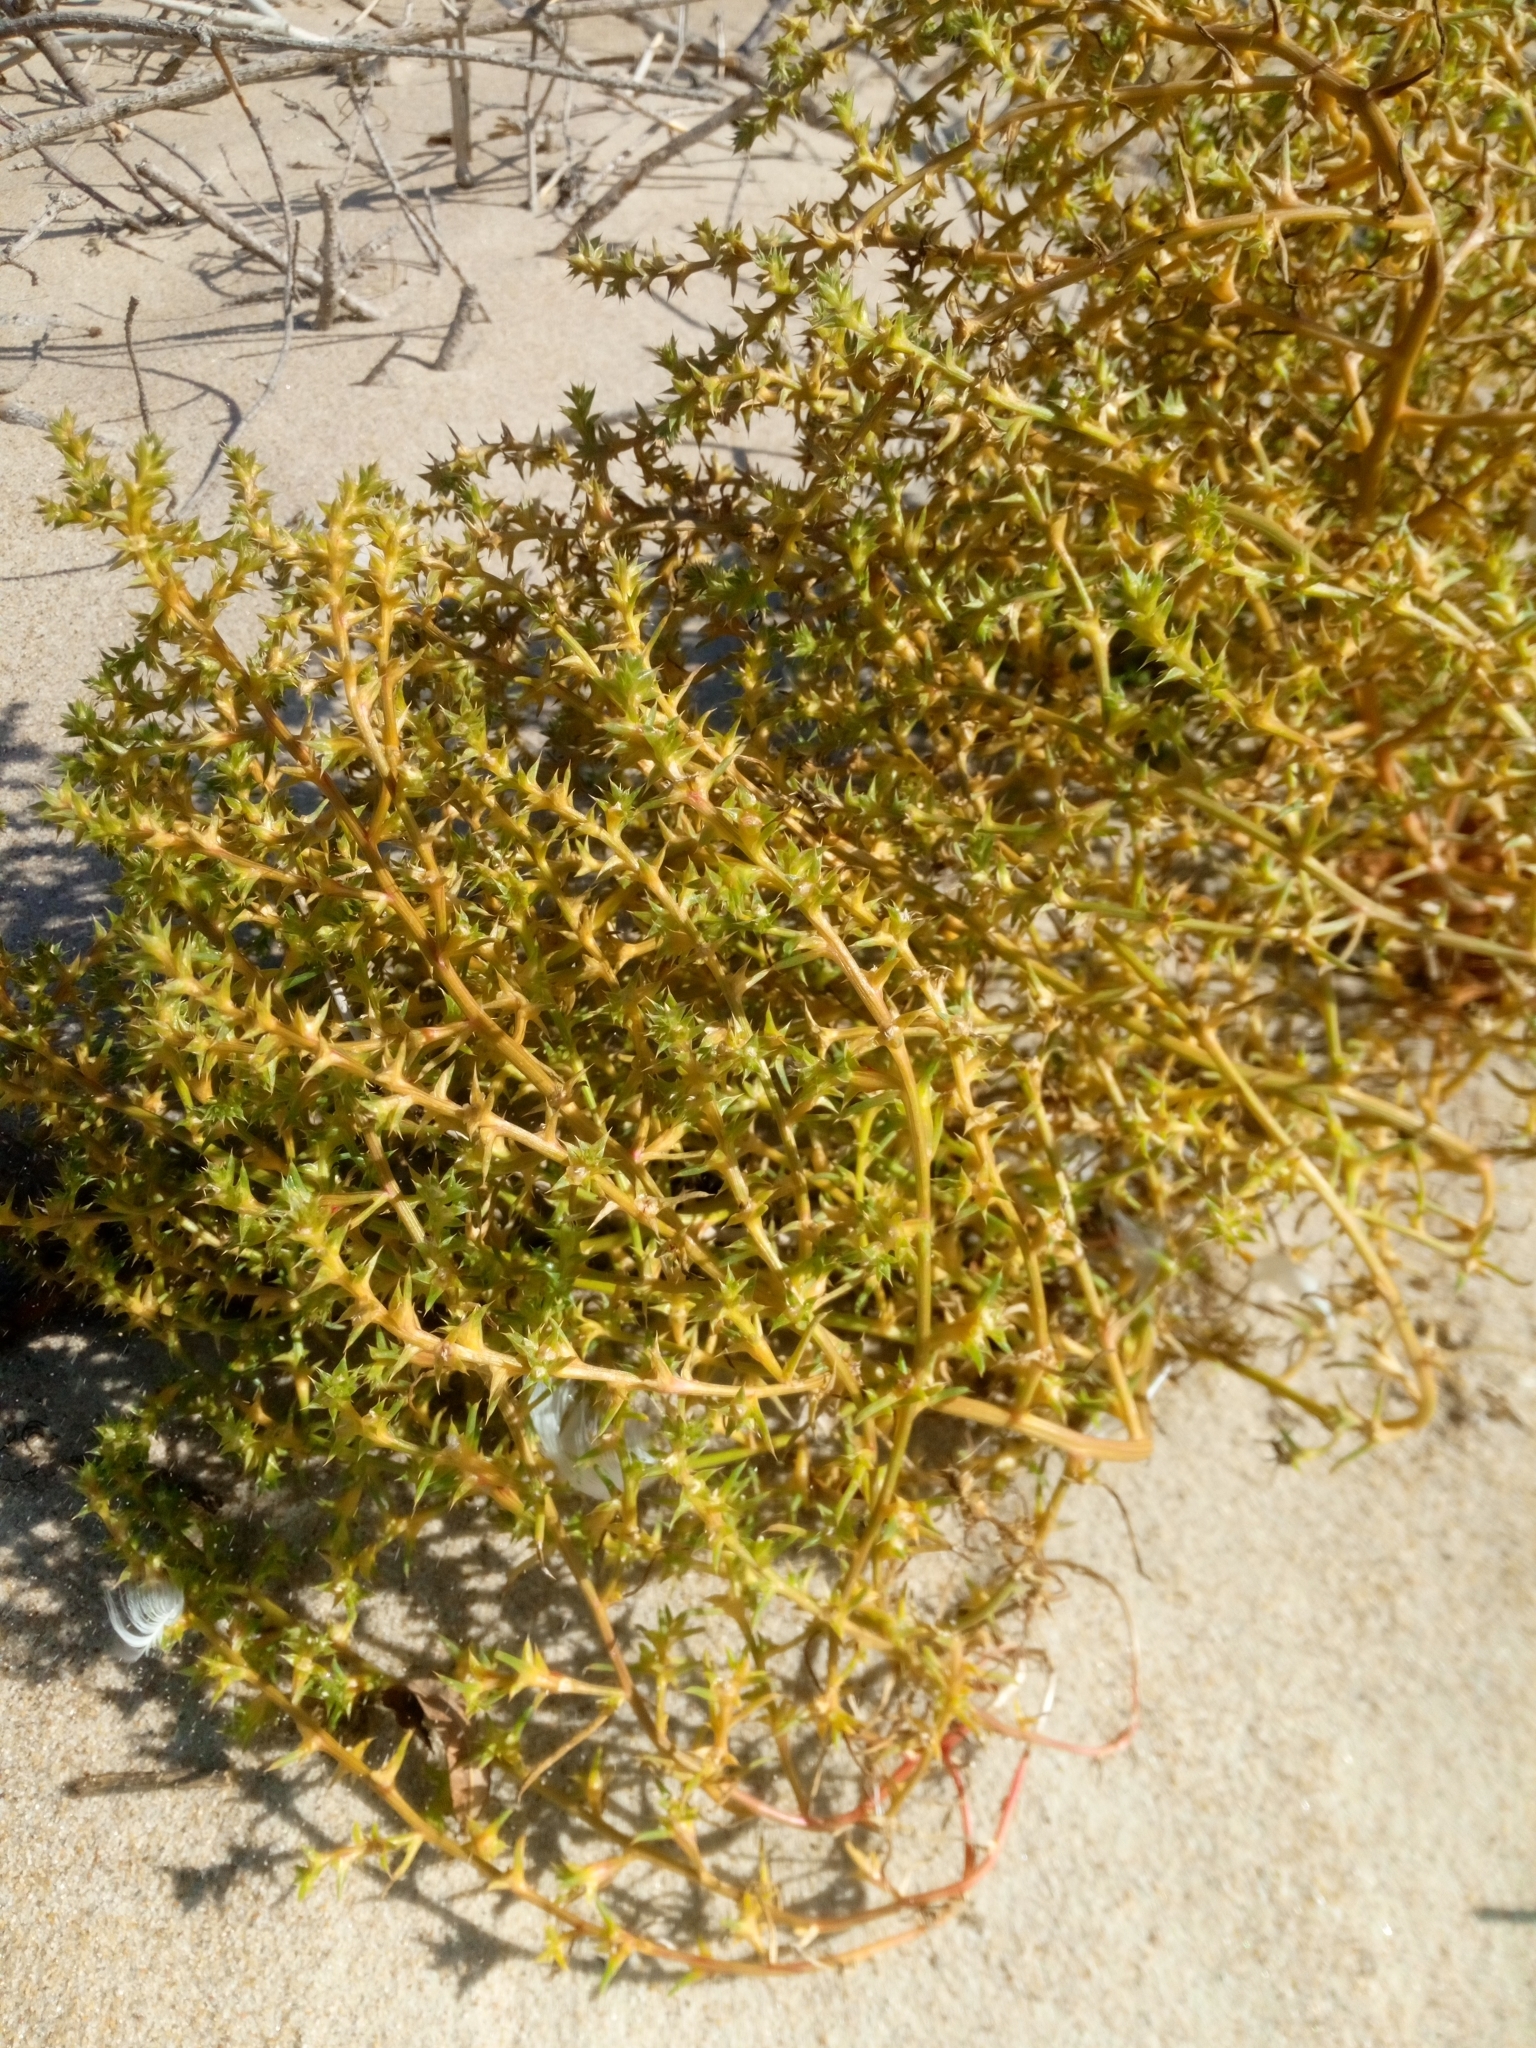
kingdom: Plantae
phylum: Tracheophyta
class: Magnoliopsida
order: Caryophyllales
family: Amaranthaceae
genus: Salsola
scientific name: Salsola kali
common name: Saltwort
